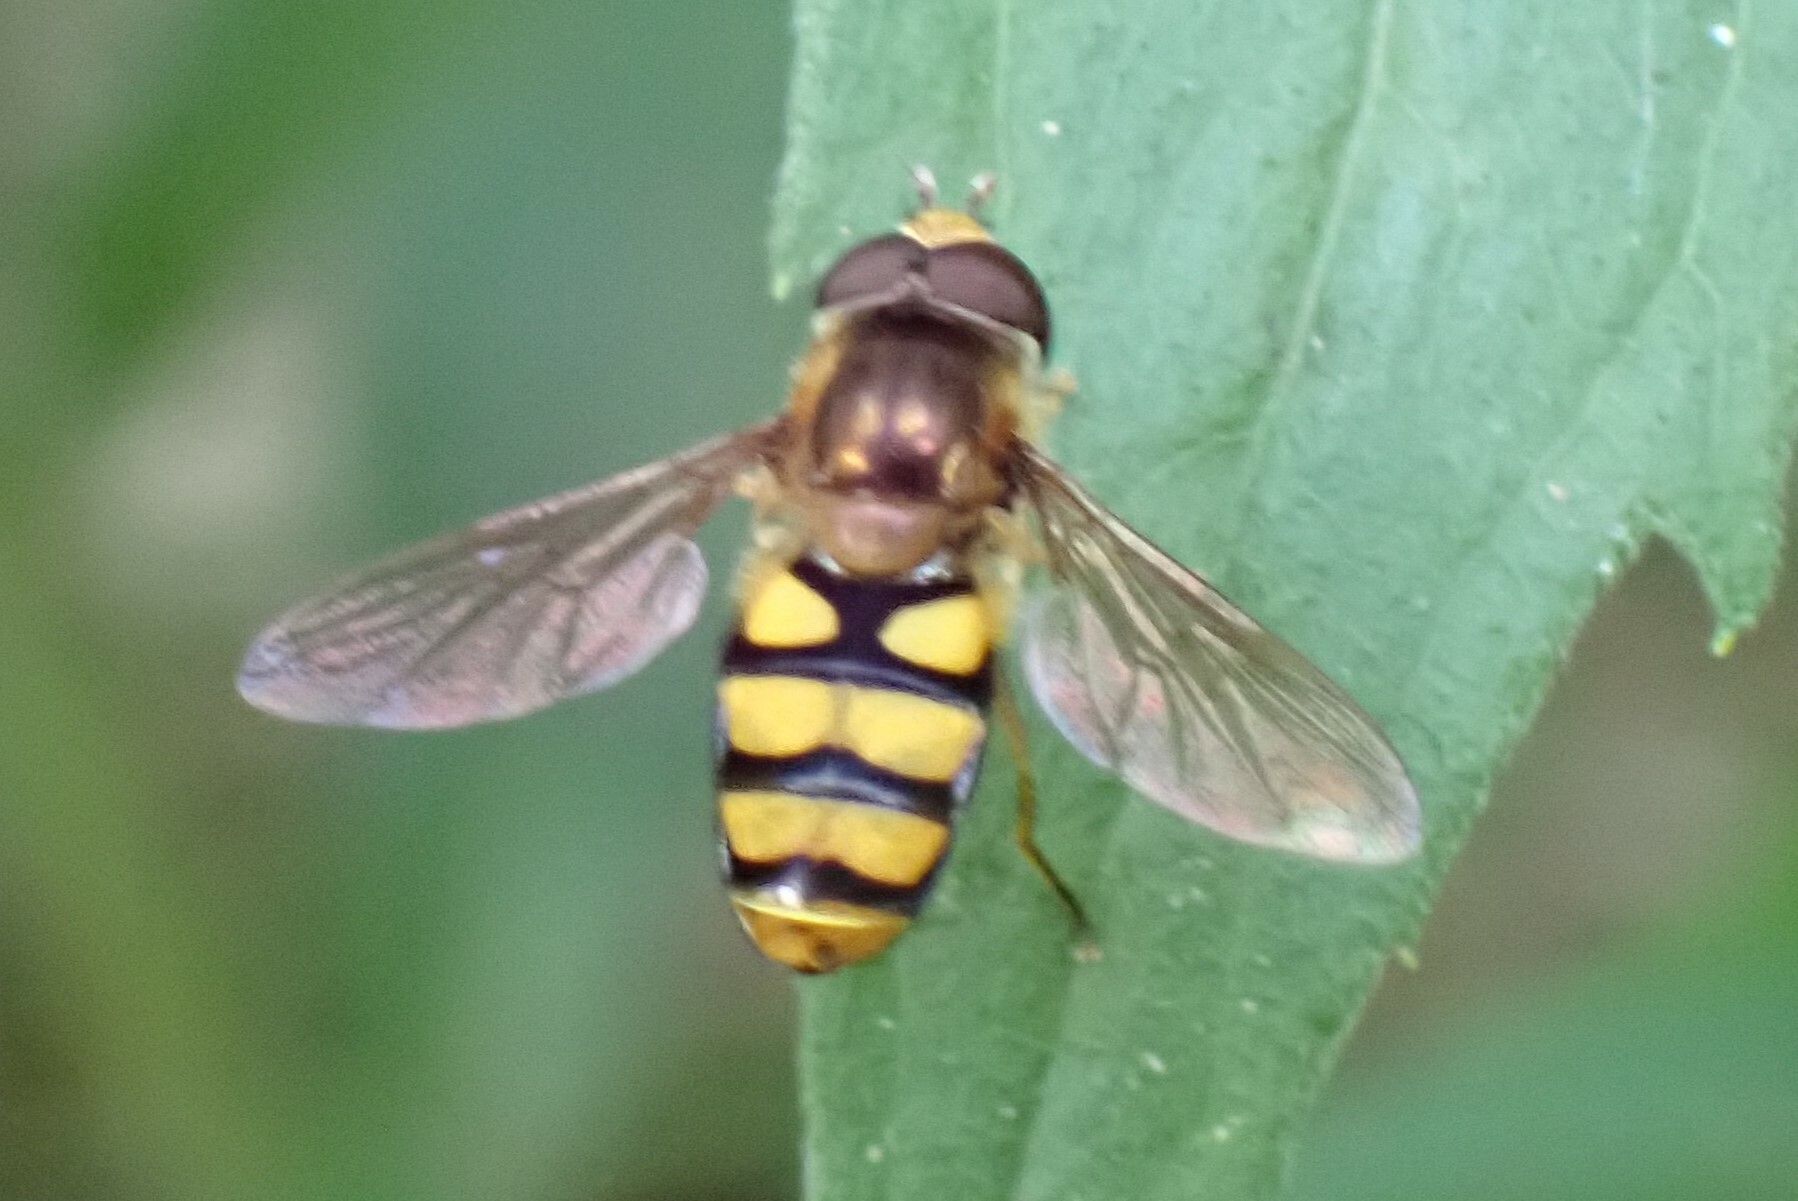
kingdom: Animalia
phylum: Arthropoda
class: Insecta
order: Diptera
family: Syrphidae
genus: Eupeodes
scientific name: Eupeodes latifasciatus
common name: Variable aphideater
